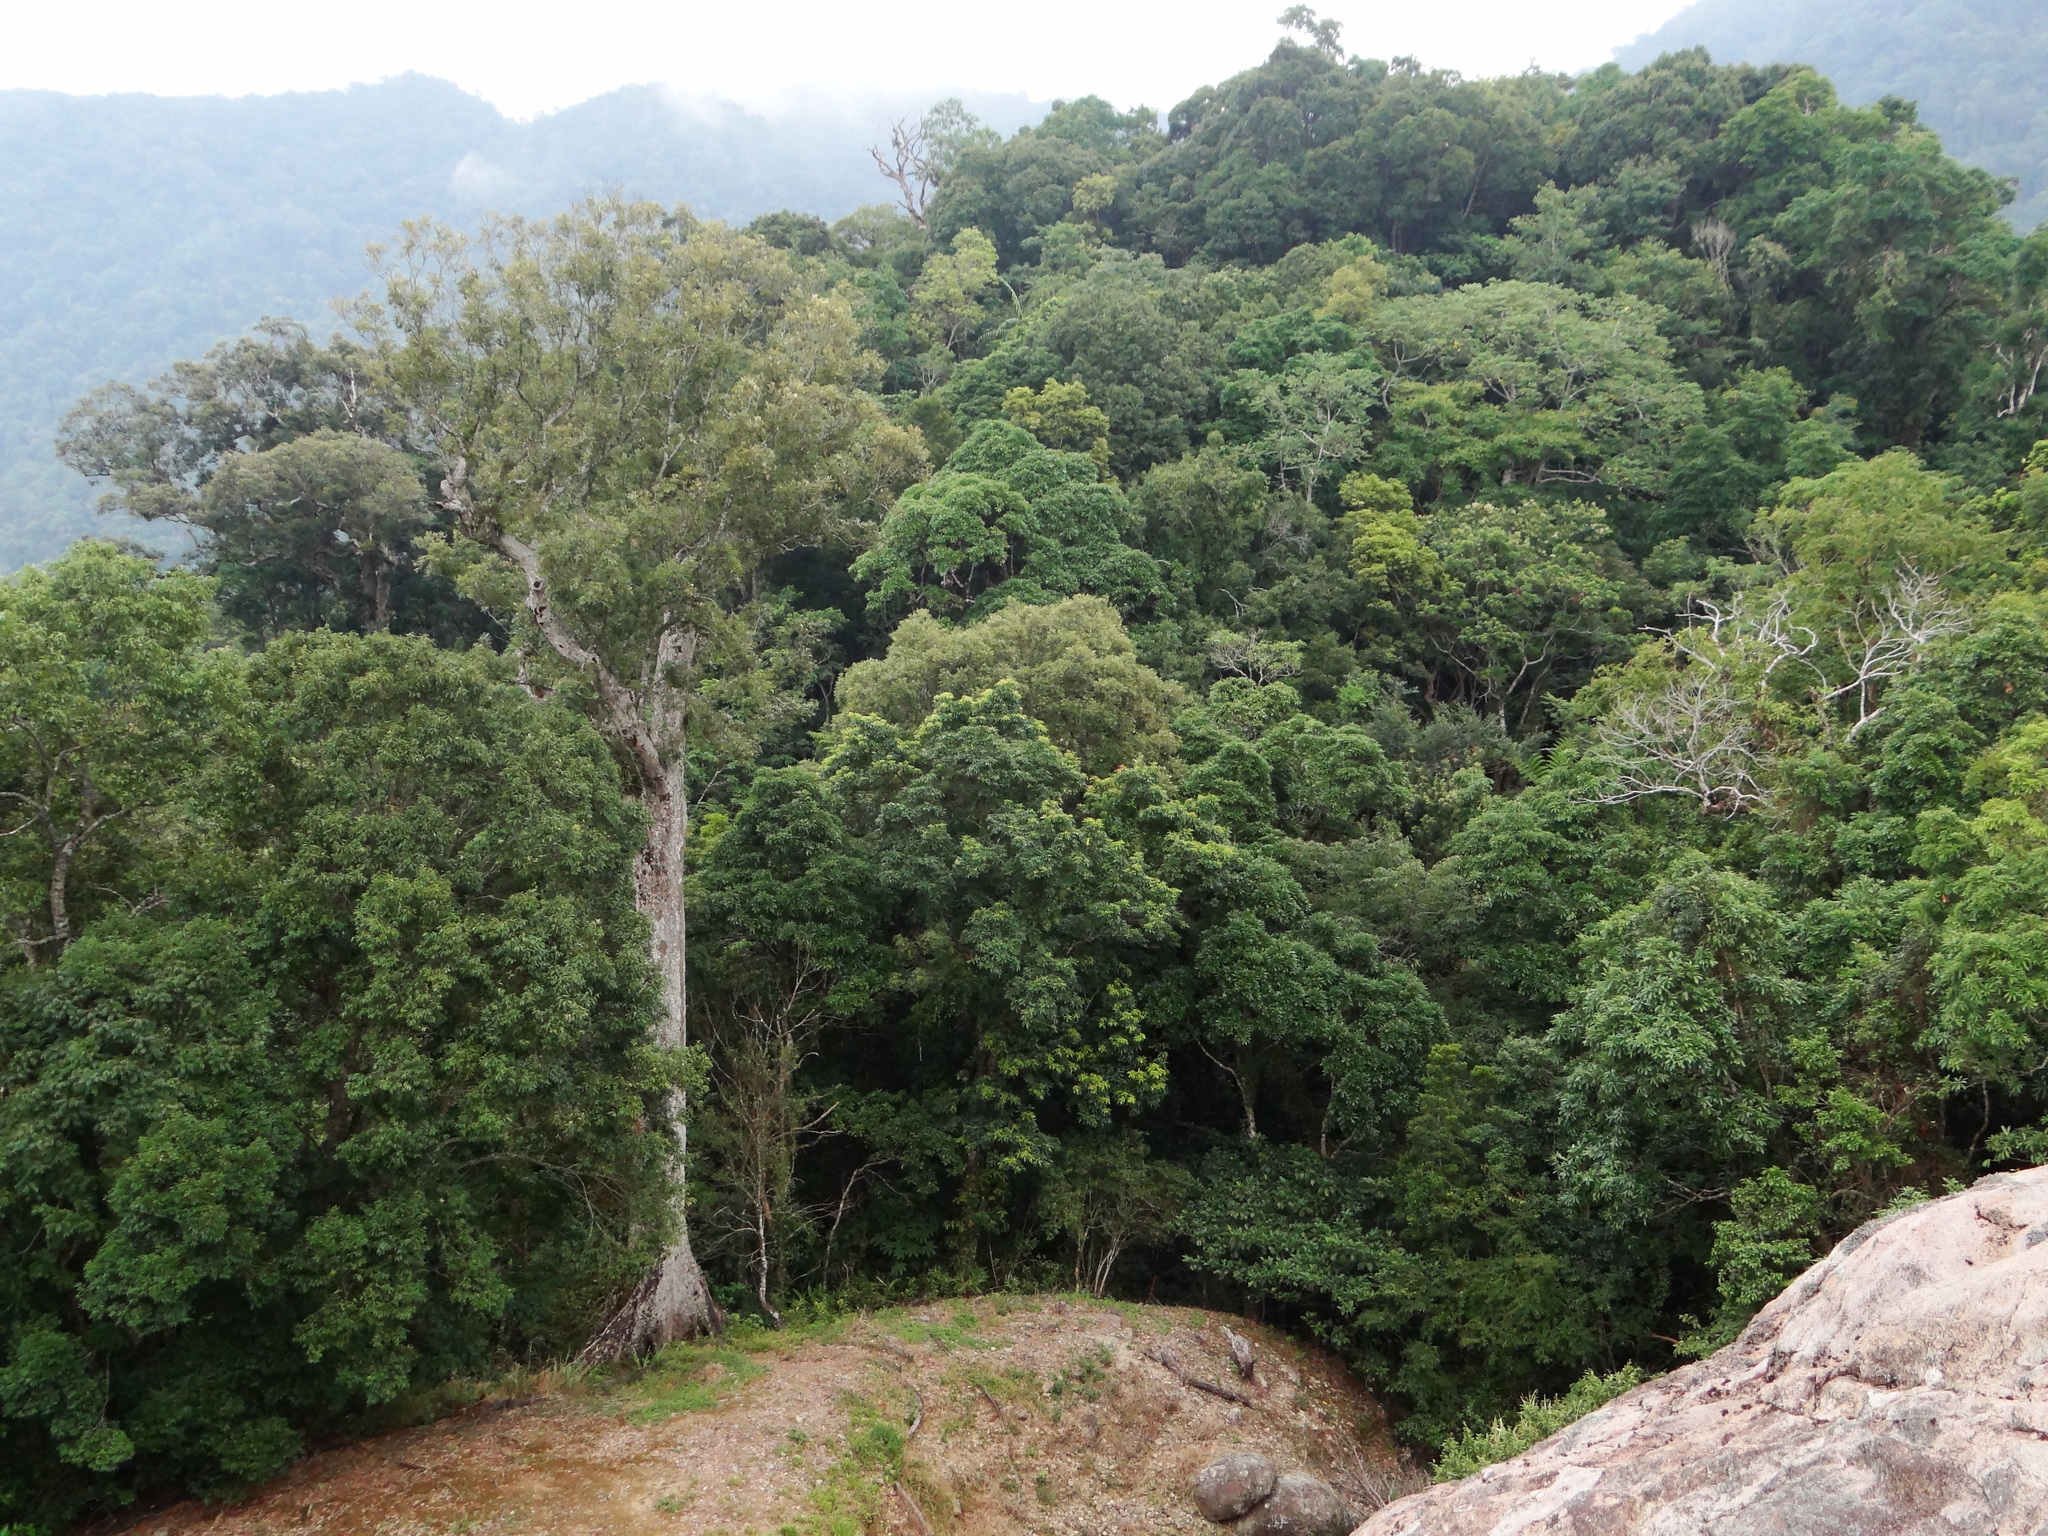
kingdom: Plantae
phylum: Tracheophyta
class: Magnoliopsida
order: Fagales
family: Fagaceae
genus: Quercus
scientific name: Quercus gilva
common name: Redbark oak
